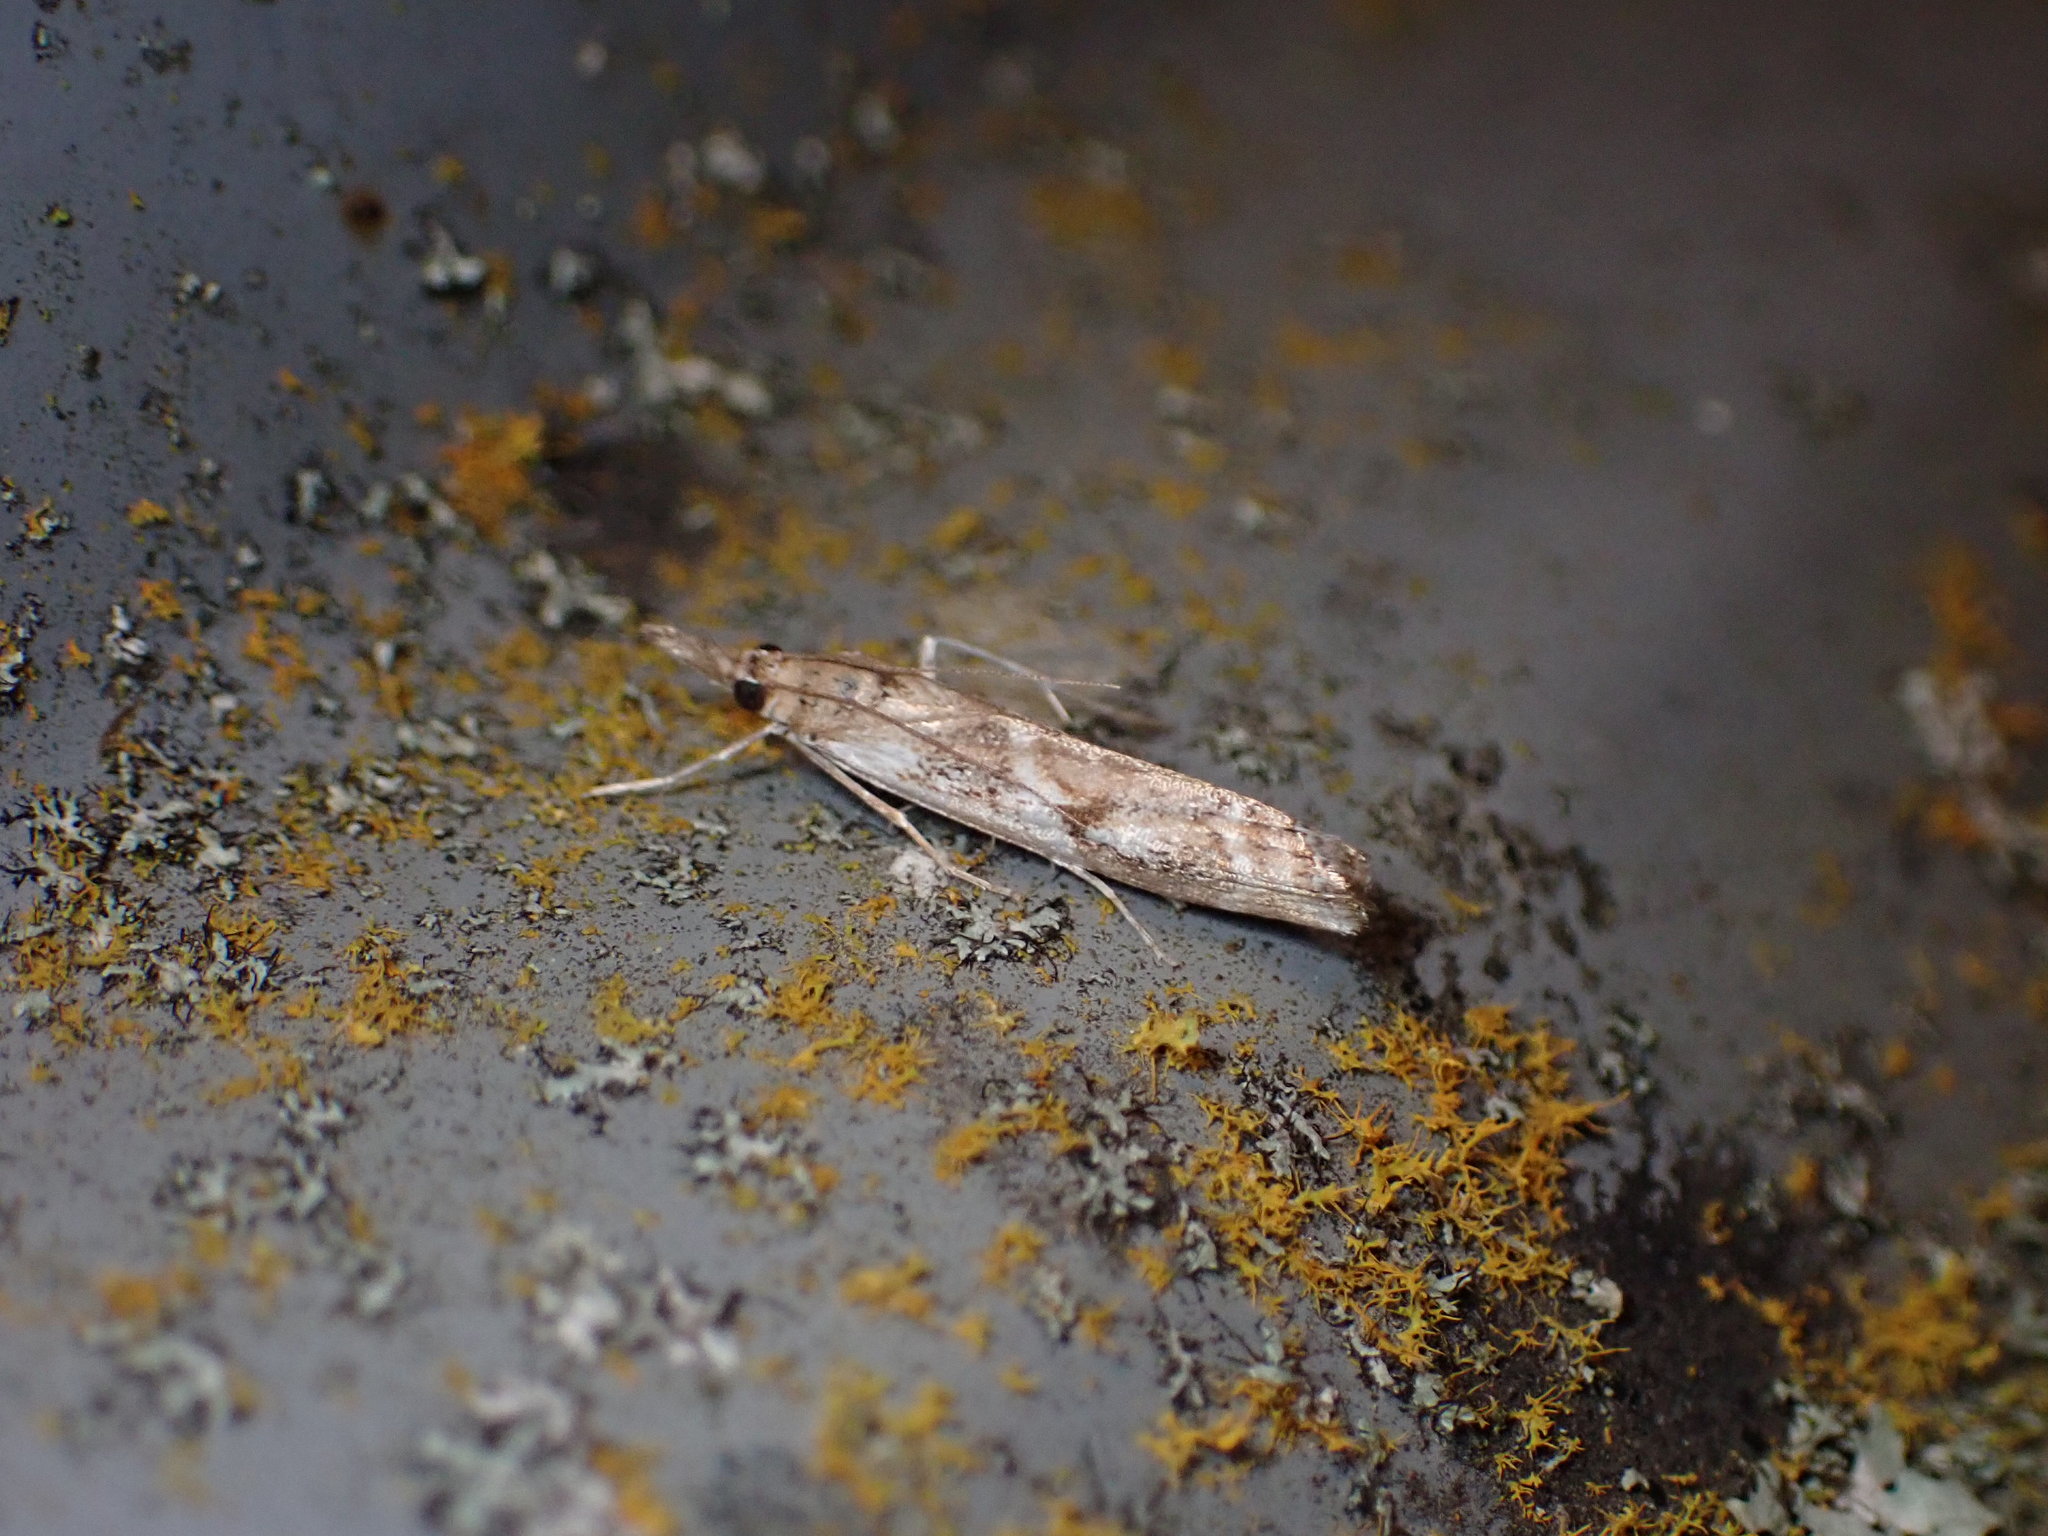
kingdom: Animalia
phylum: Arthropoda
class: Insecta
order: Lepidoptera
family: Crambidae
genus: Orocrambus
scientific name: Orocrambus vulgaris
